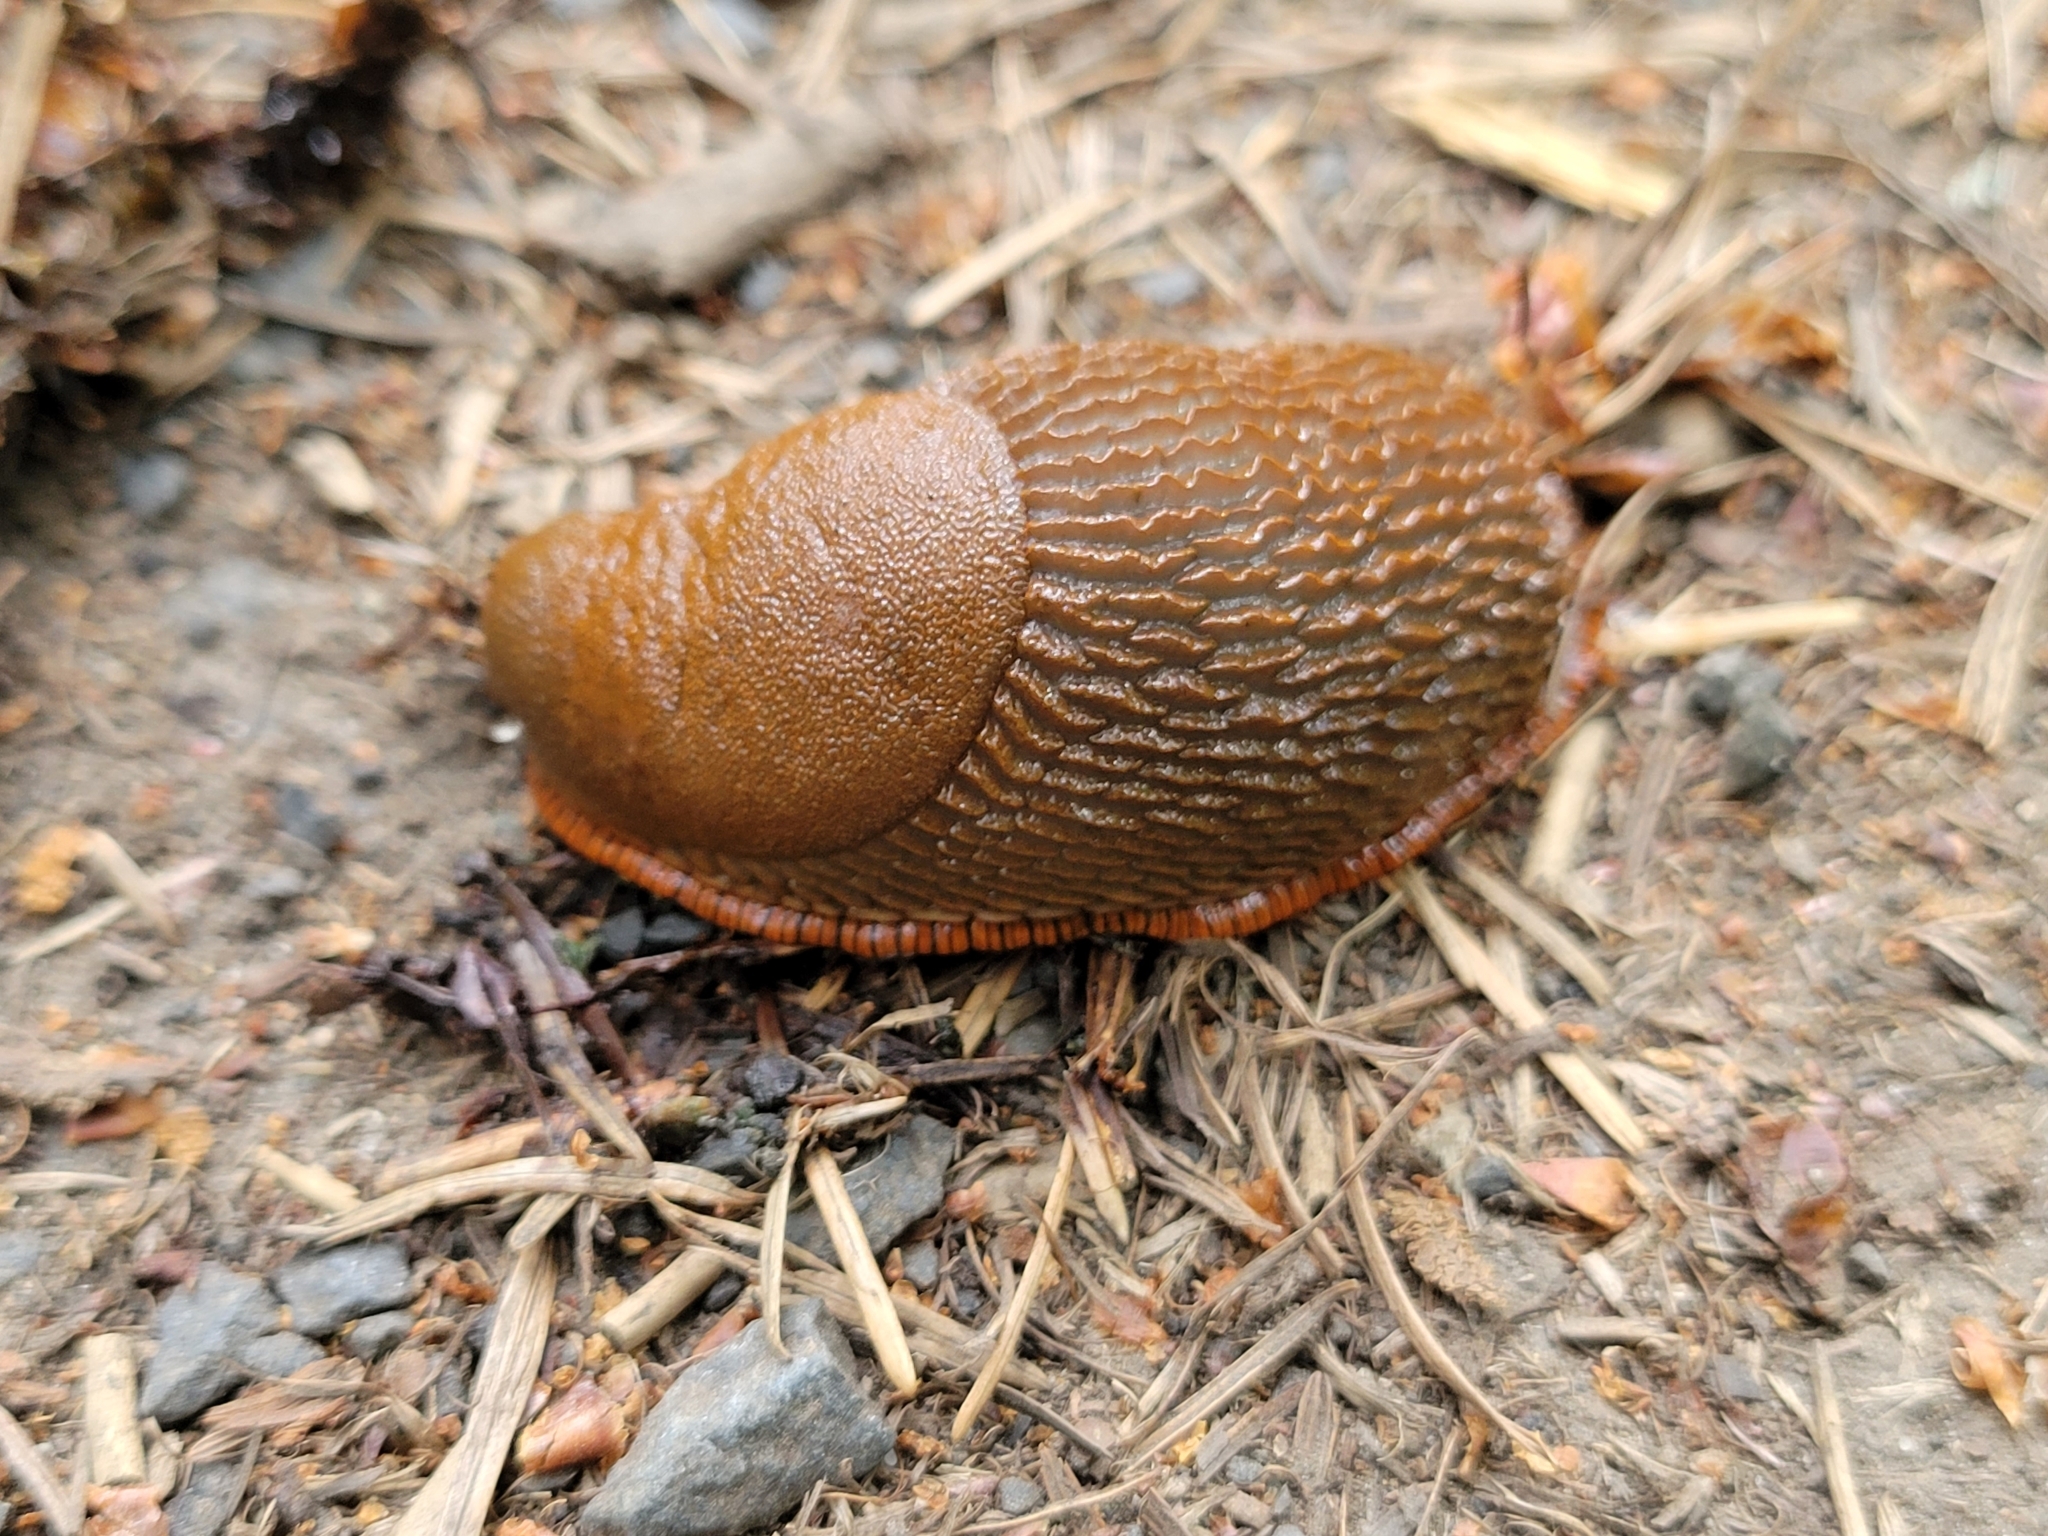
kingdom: Animalia
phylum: Mollusca
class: Gastropoda
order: Stylommatophora
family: Arionidae
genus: Arion
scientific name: Arion rufus
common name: Chocolate arion
